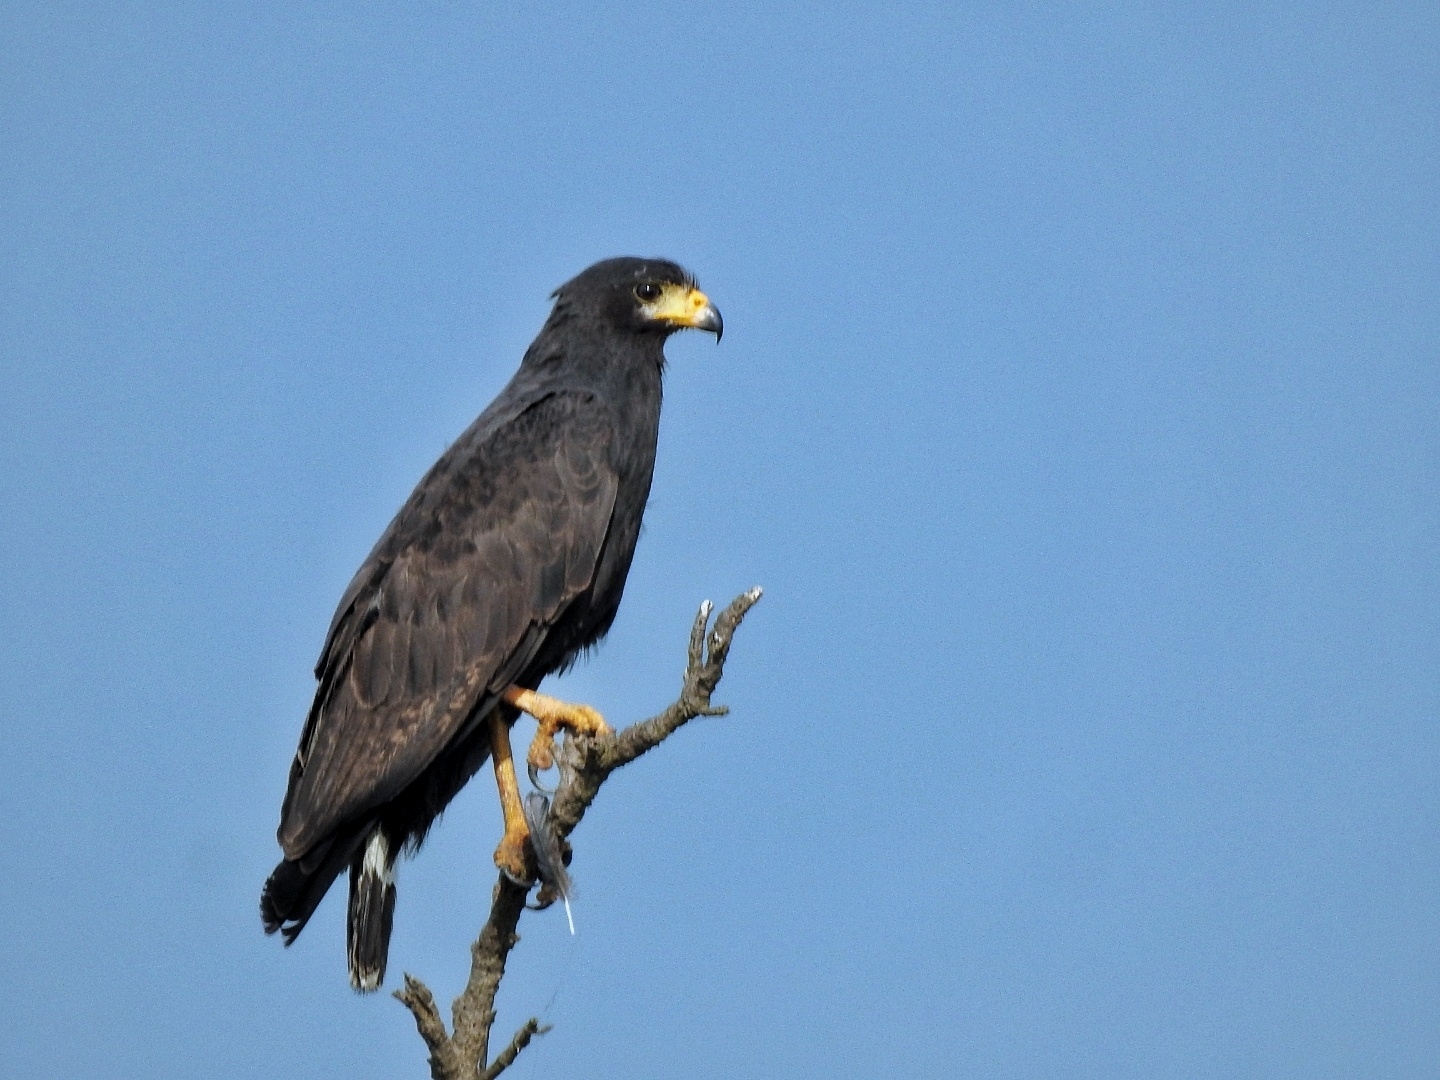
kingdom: Animalia
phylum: Chordata
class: Aves
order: Accipitriformes
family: Accipitridae
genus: Buteogallus
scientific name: Buteogallus anthracinus
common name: Common black hawk
